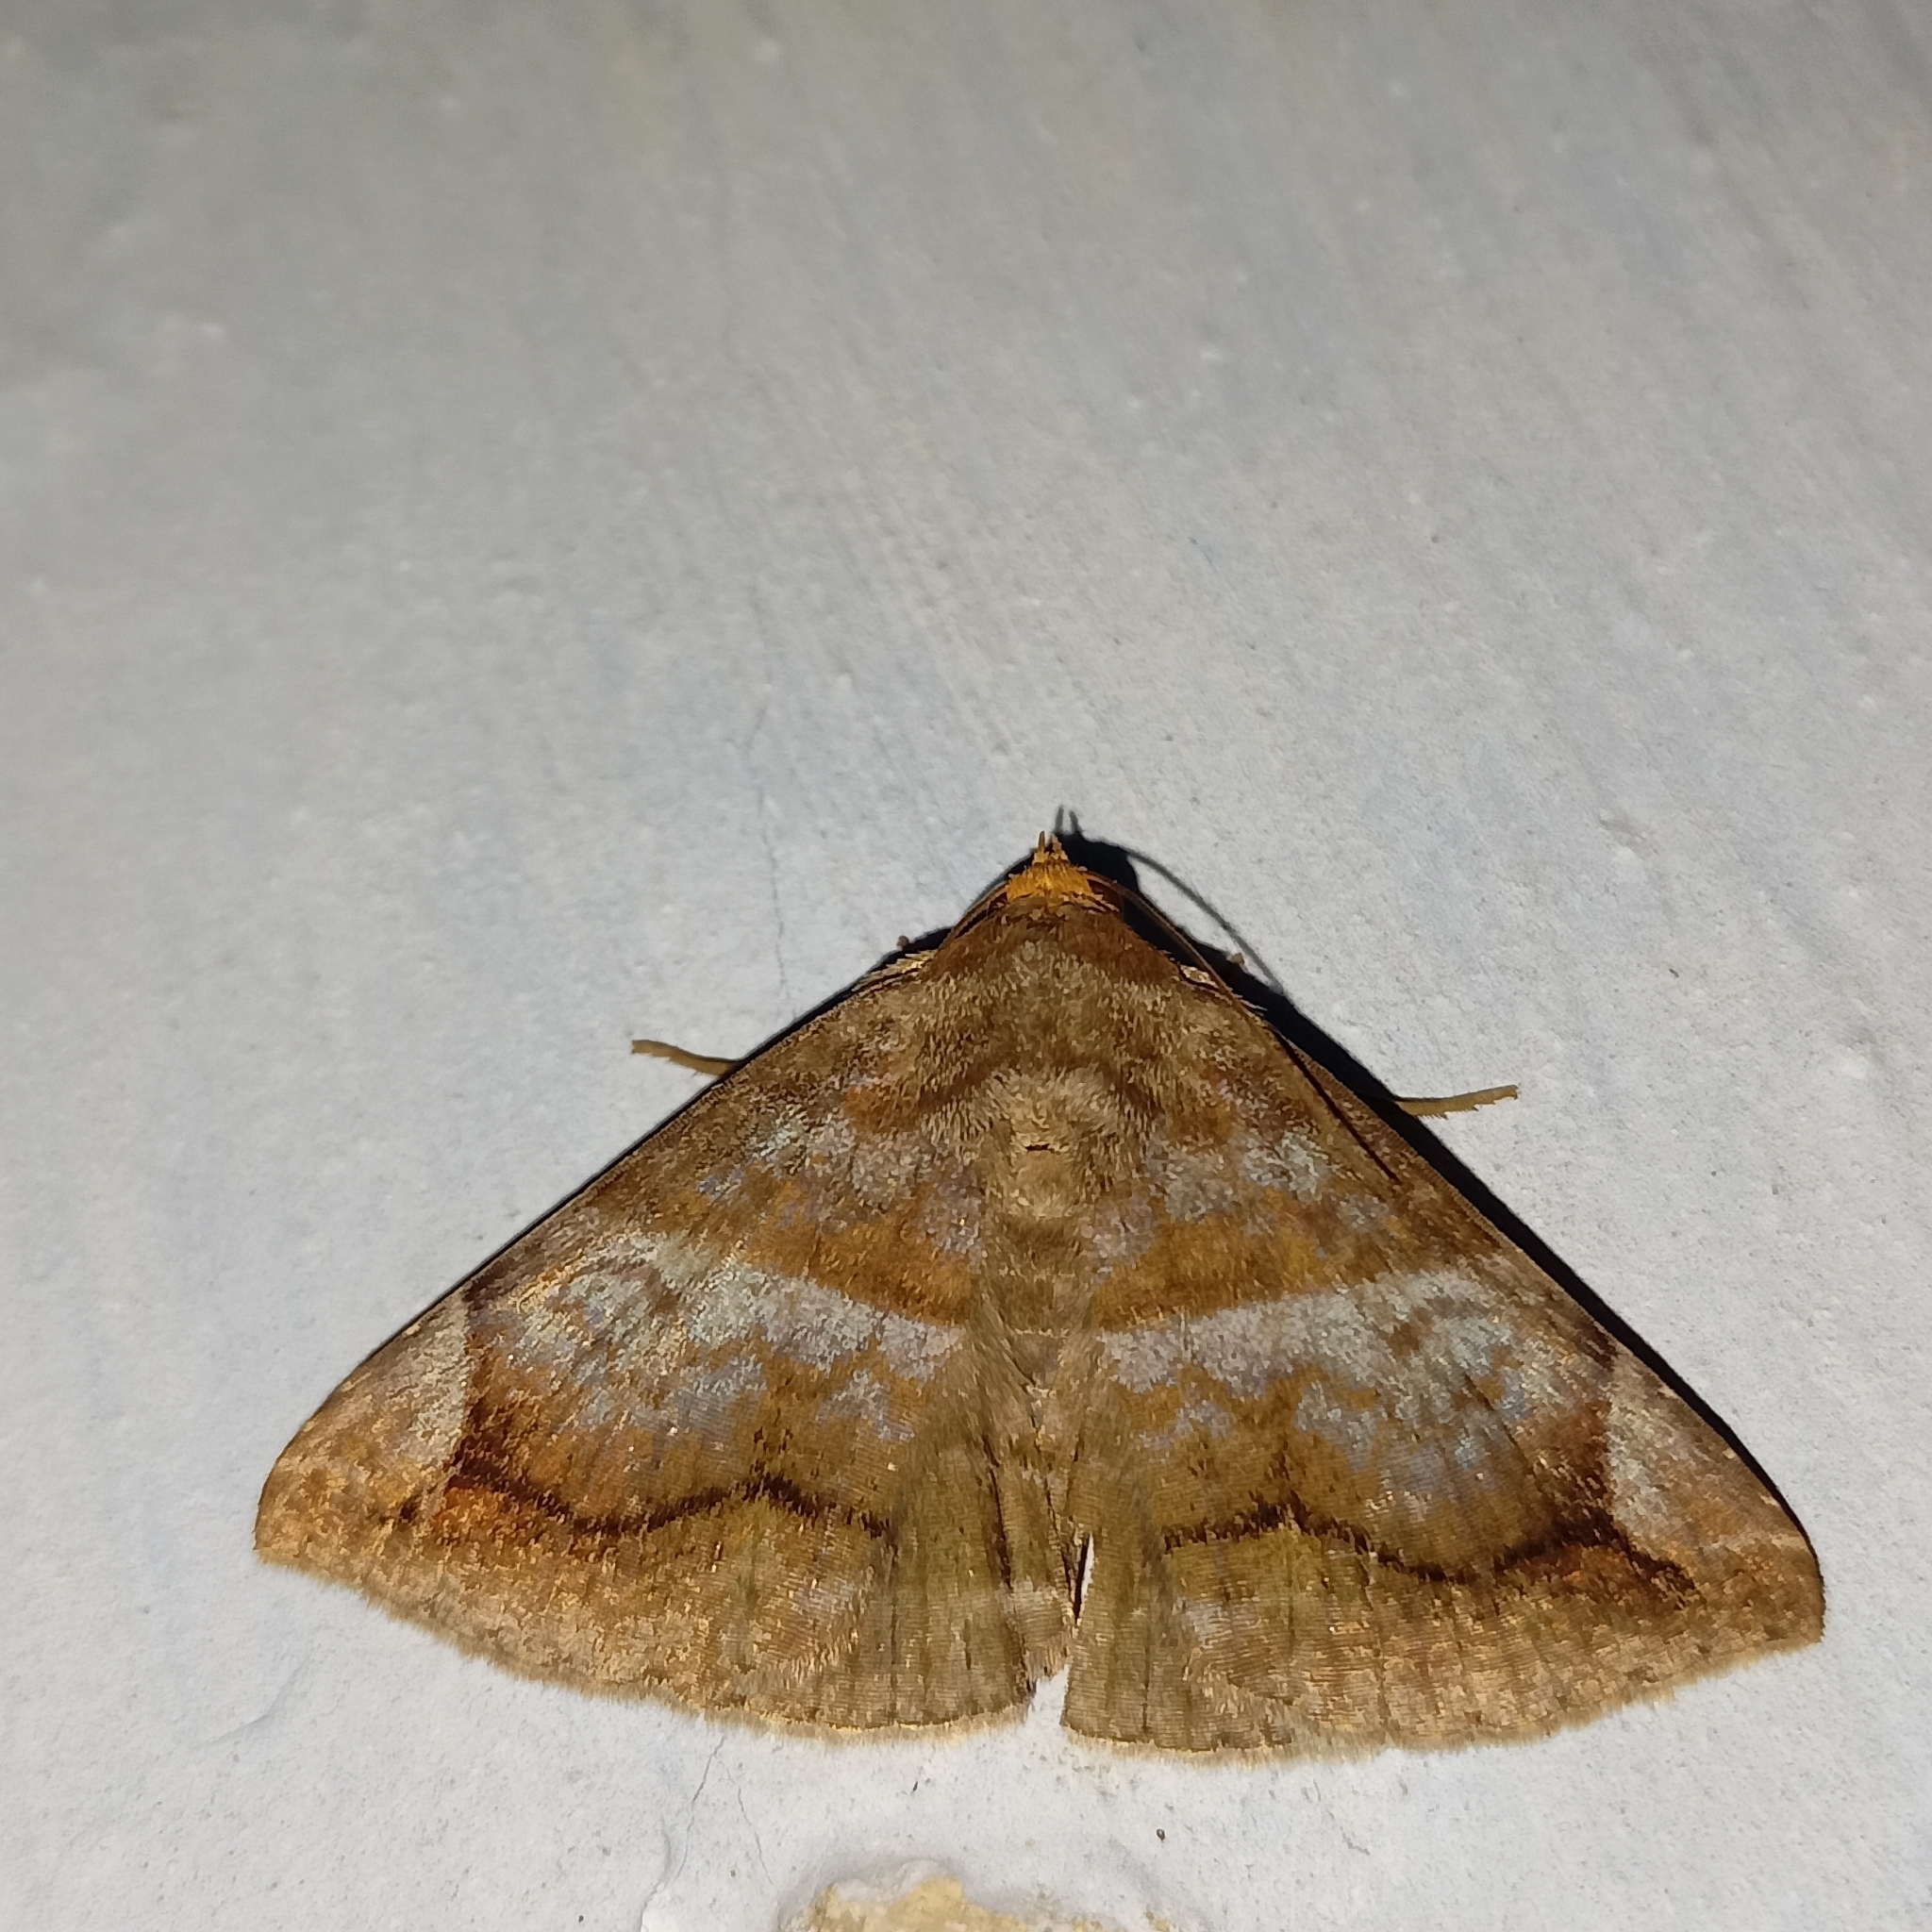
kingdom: Animalia
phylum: Arthropoda
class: Insecta
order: Lepidoptera
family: Erebidae
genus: Buzara
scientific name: Buzara onelia
